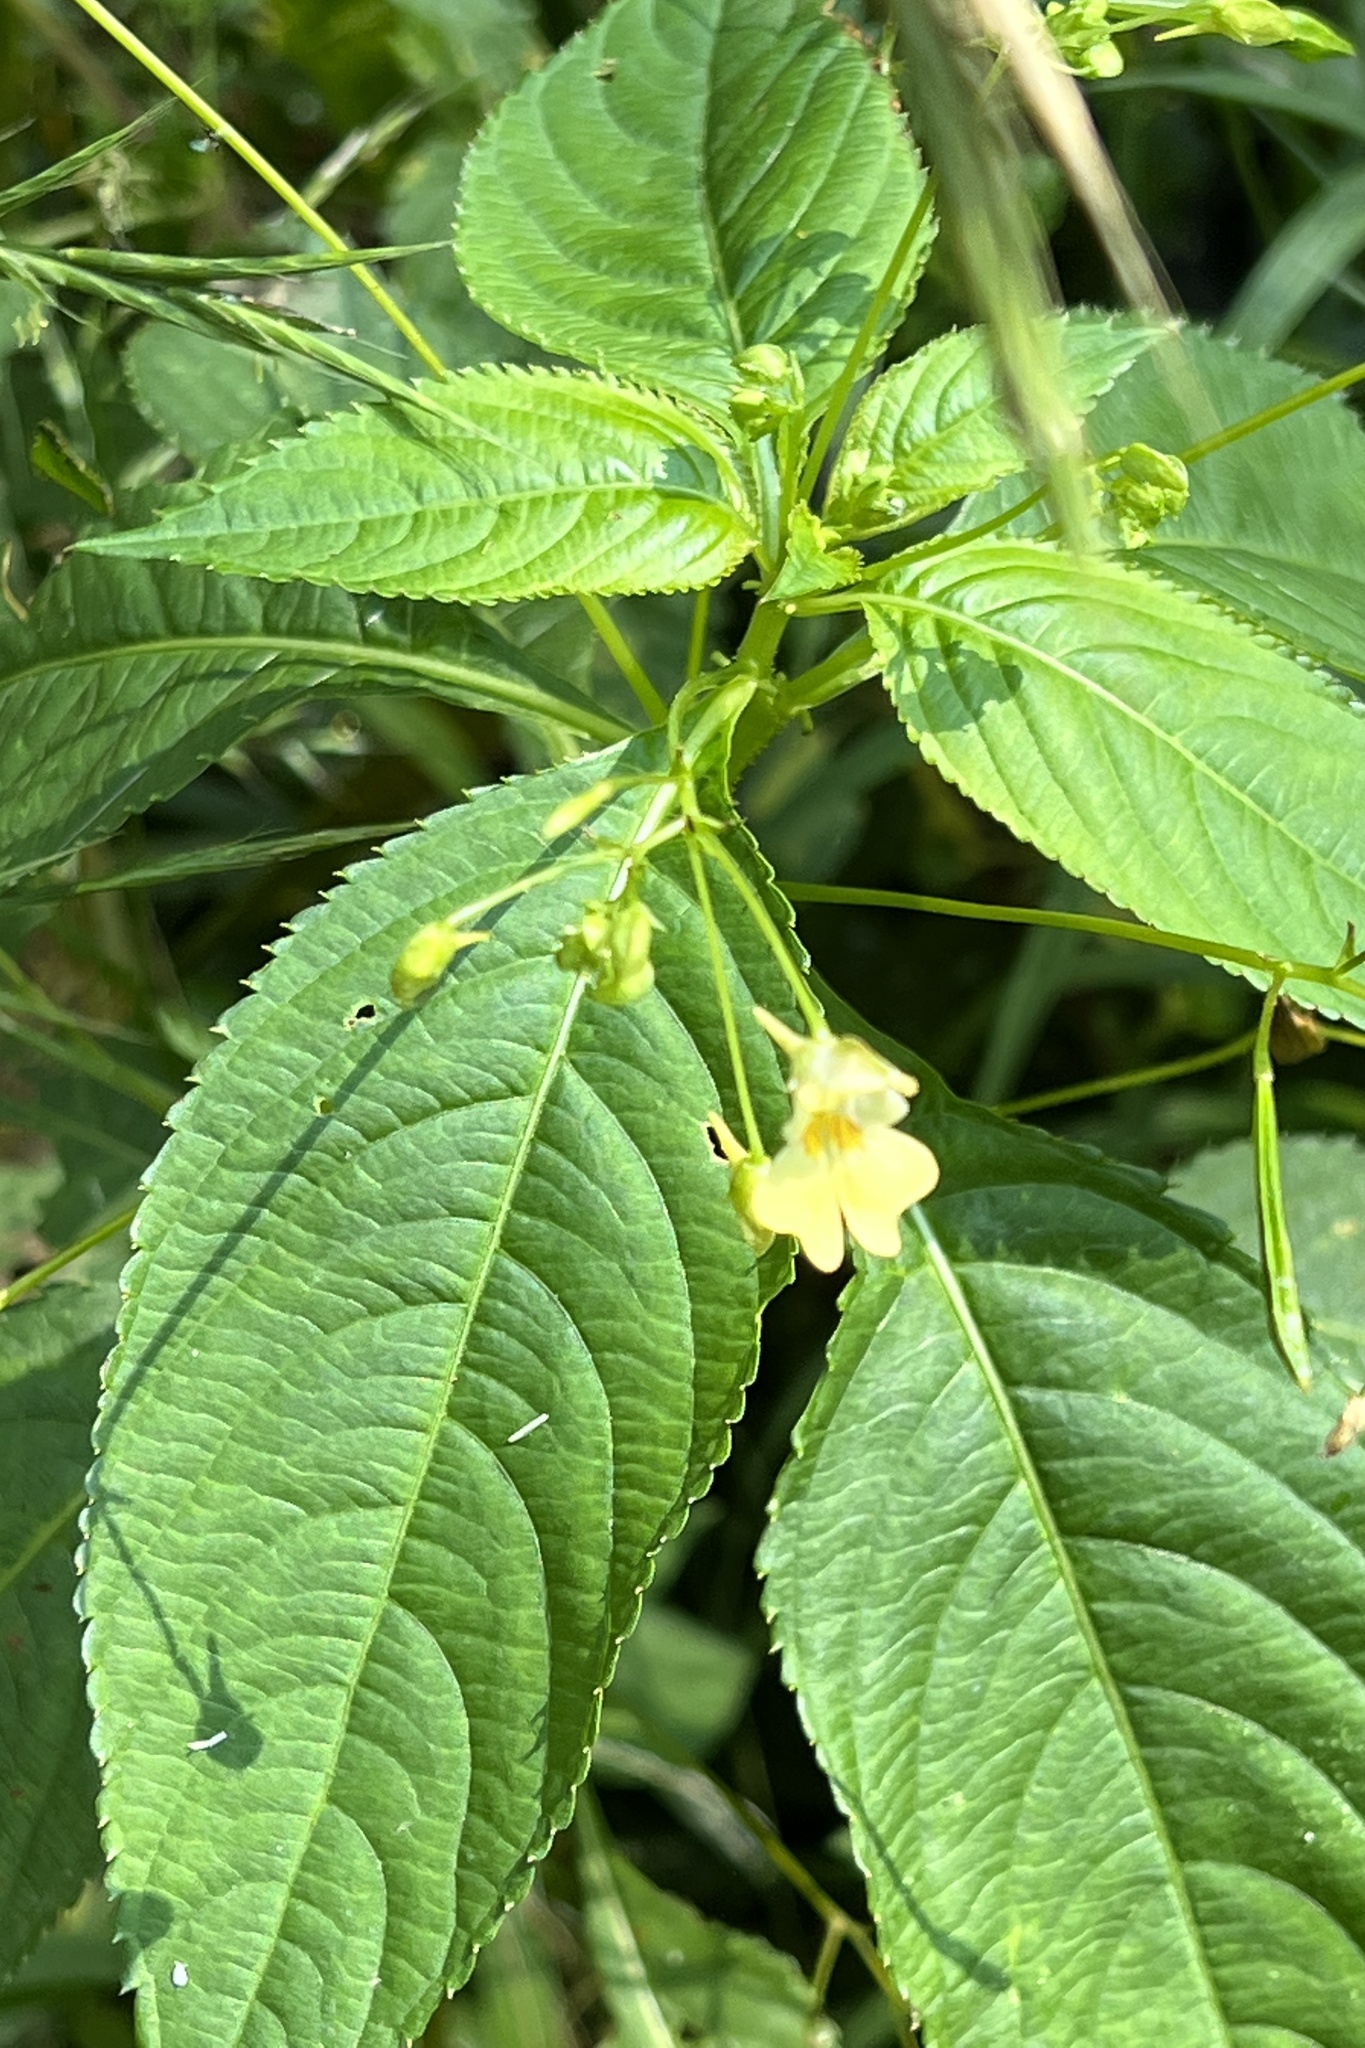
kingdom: Plantae
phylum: Tracheophyta
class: Magnoliopsida
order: Ericales
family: Balsaminaceae
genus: Impatiens
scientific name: Impatiens parviflora
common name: Small balsam
